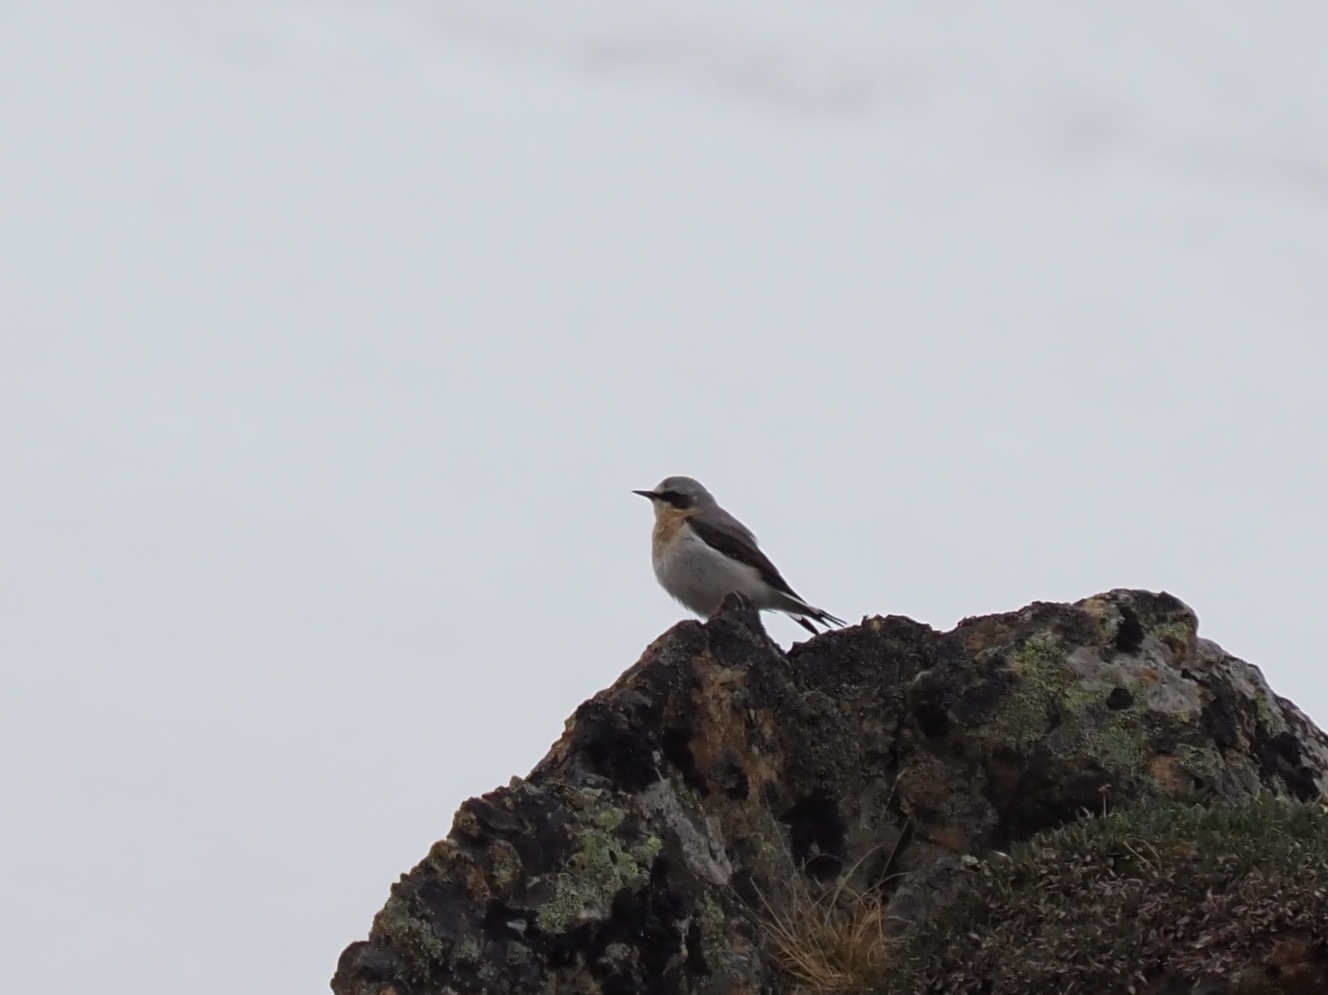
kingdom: Animalia
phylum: Chordata
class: Aves
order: Passeriformes
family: Muscicapidae
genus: Oenanthe
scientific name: Oenanthe oenanthe
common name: Northern wheatear
